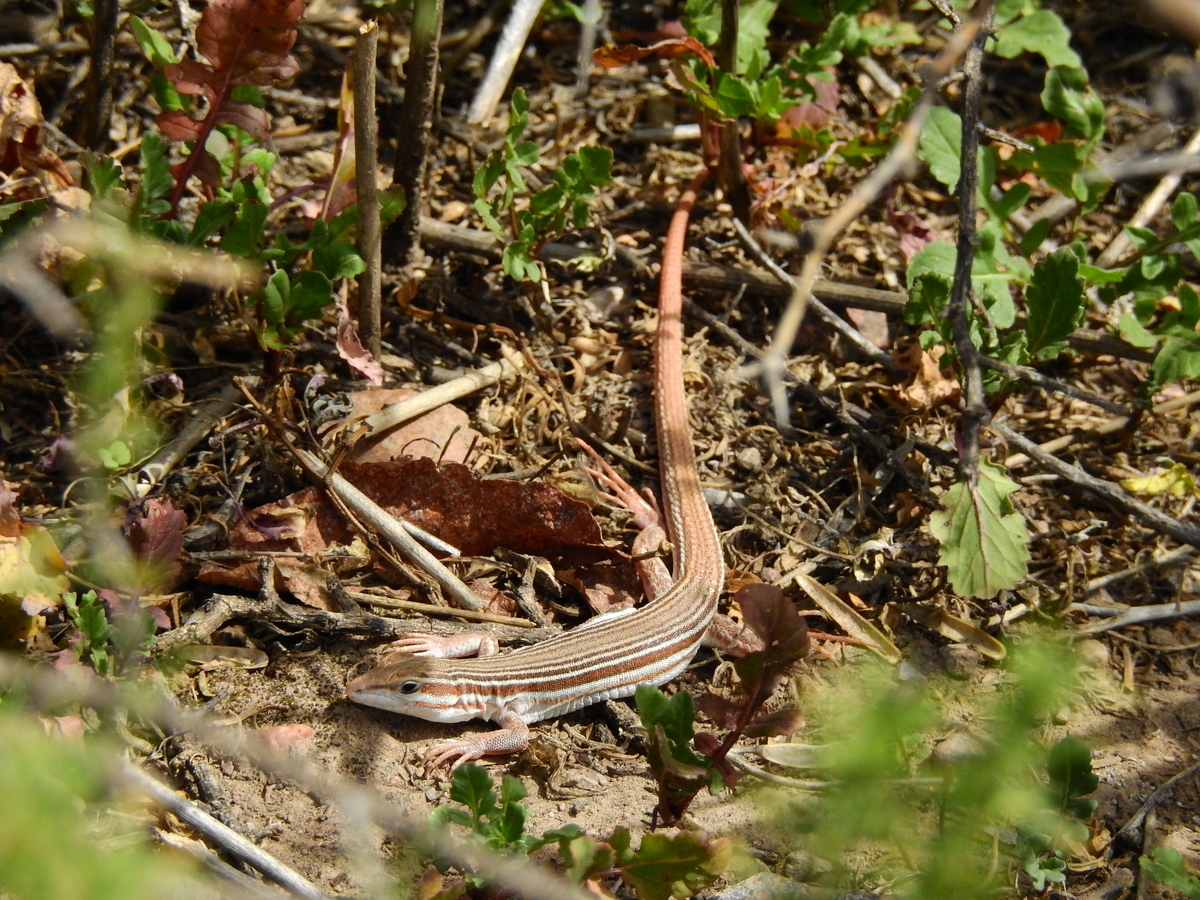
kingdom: Animalia
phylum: Chordata
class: Squamata
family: Teiidae
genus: Aurivela
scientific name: Aurivela longicauda
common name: Longtail whiptail
